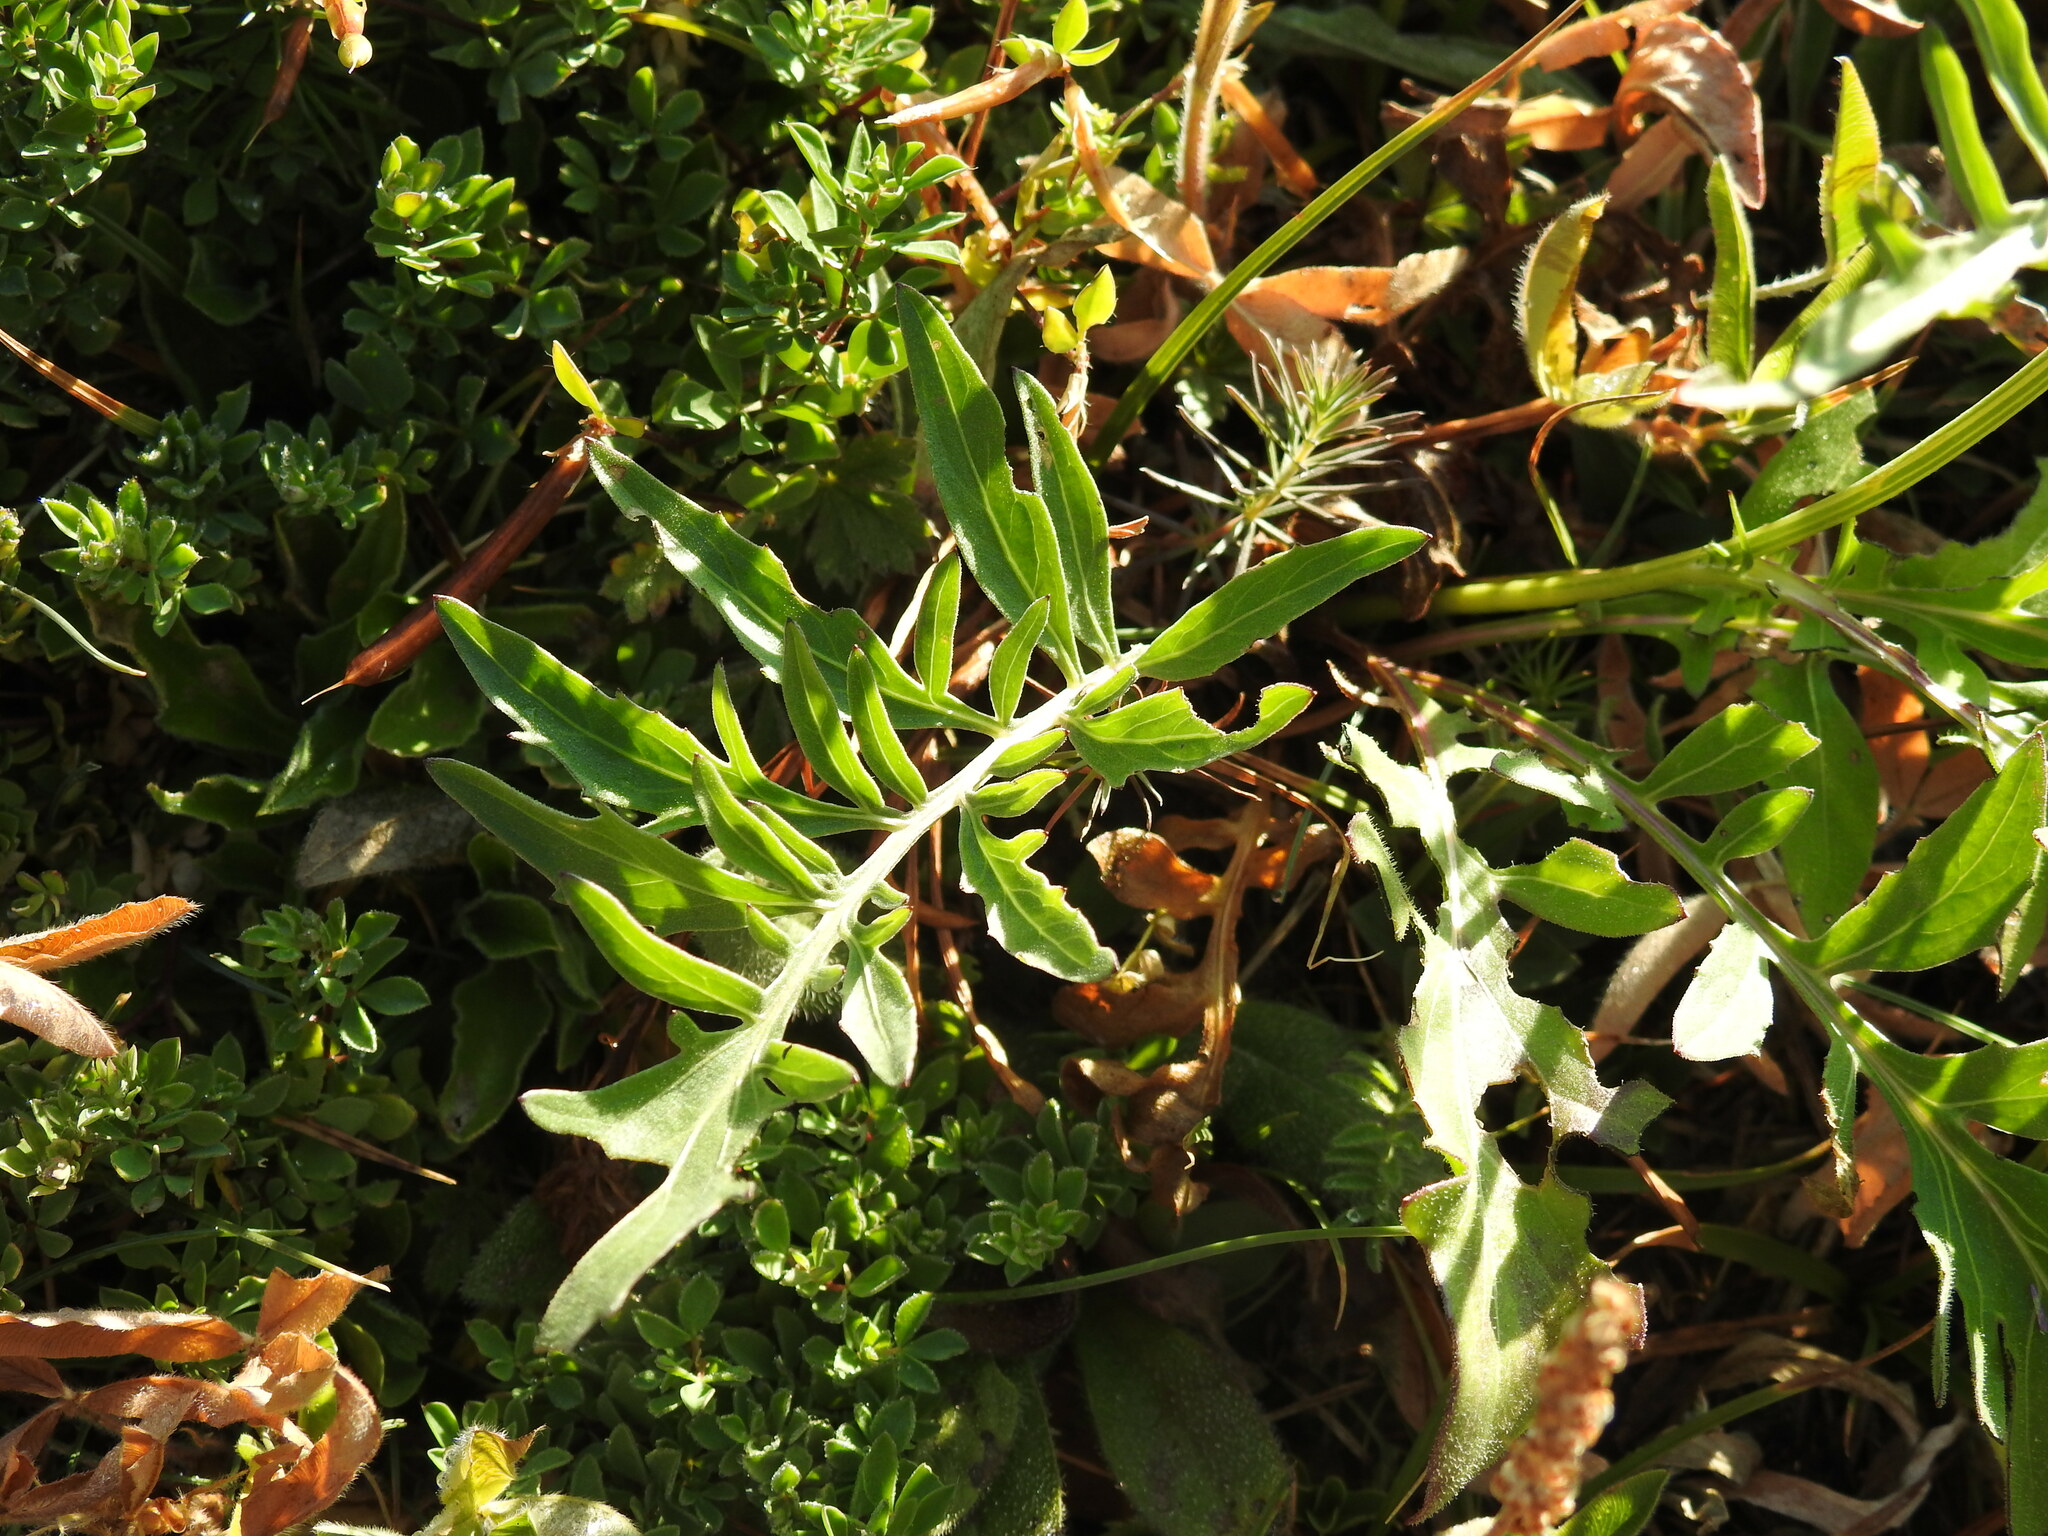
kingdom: Plantae
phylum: Tracheophyta
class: Magnoliopsida
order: Asterales
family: Asteraceae
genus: Centaurea
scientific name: Centaurea scabiosa
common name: Greater knapweed
